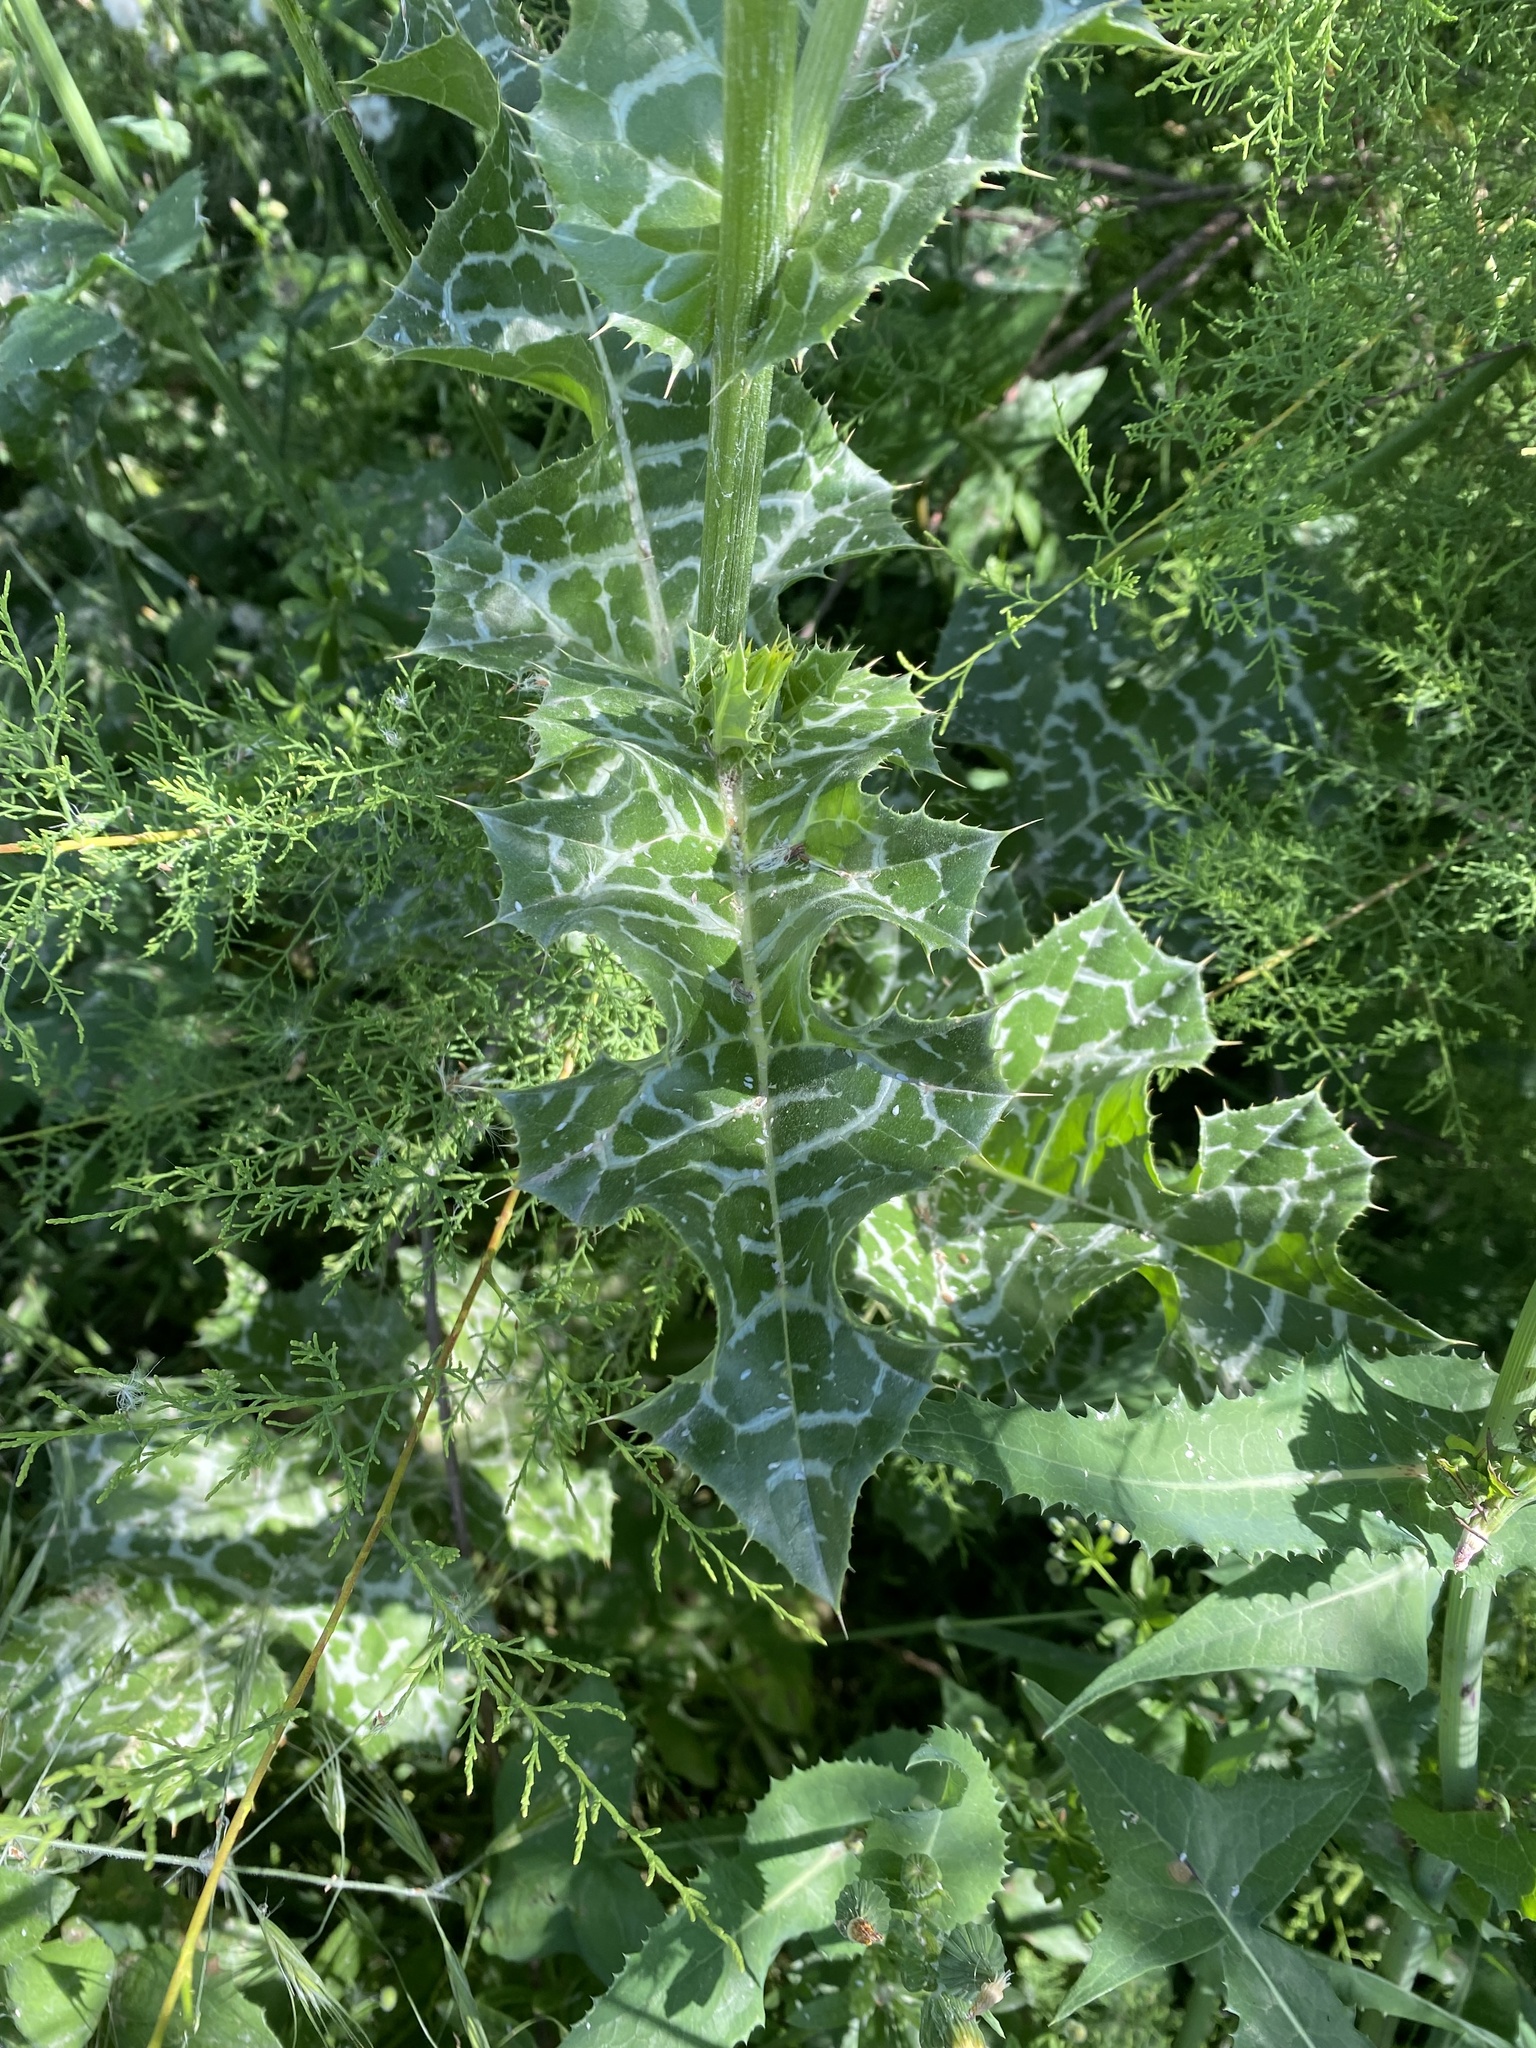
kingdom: Plantae
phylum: Tracheophyta
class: Magnoliopsida
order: Asterales
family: Asteraceae
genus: Silybum
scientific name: Silybum marianum
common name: Milk thistle
